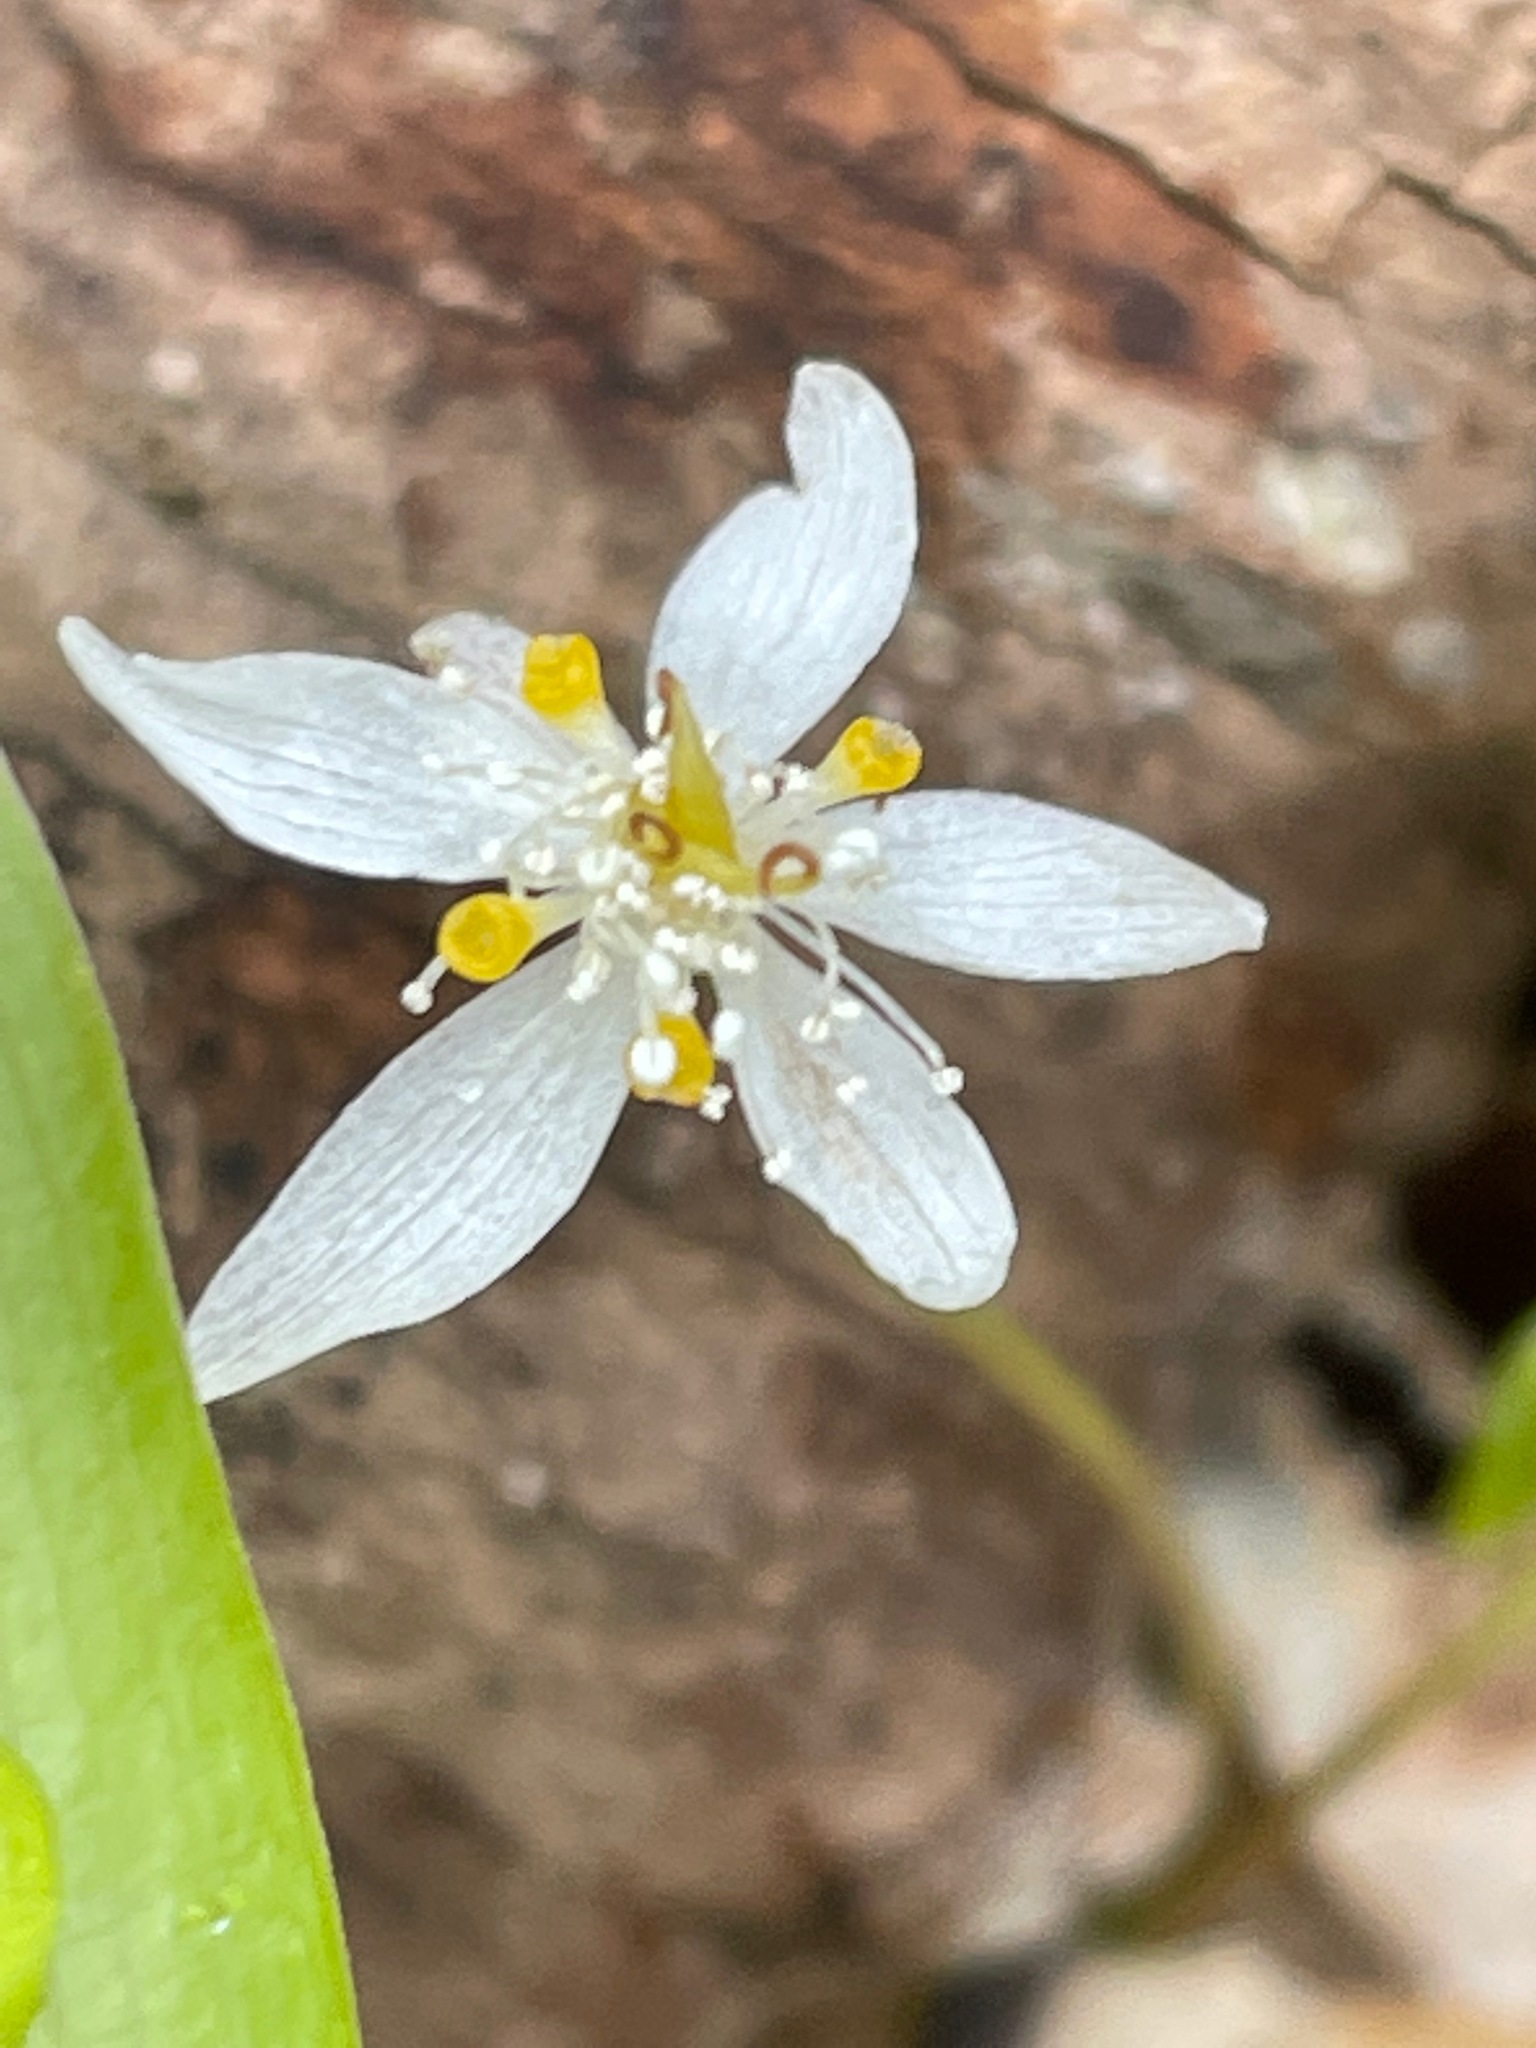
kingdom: Plantae
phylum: Tracheophyta
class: Magnoliopsida
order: Ranunculales
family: Ranunculaceae
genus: Coptis
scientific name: Coptis trifolia
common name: Canker-root
